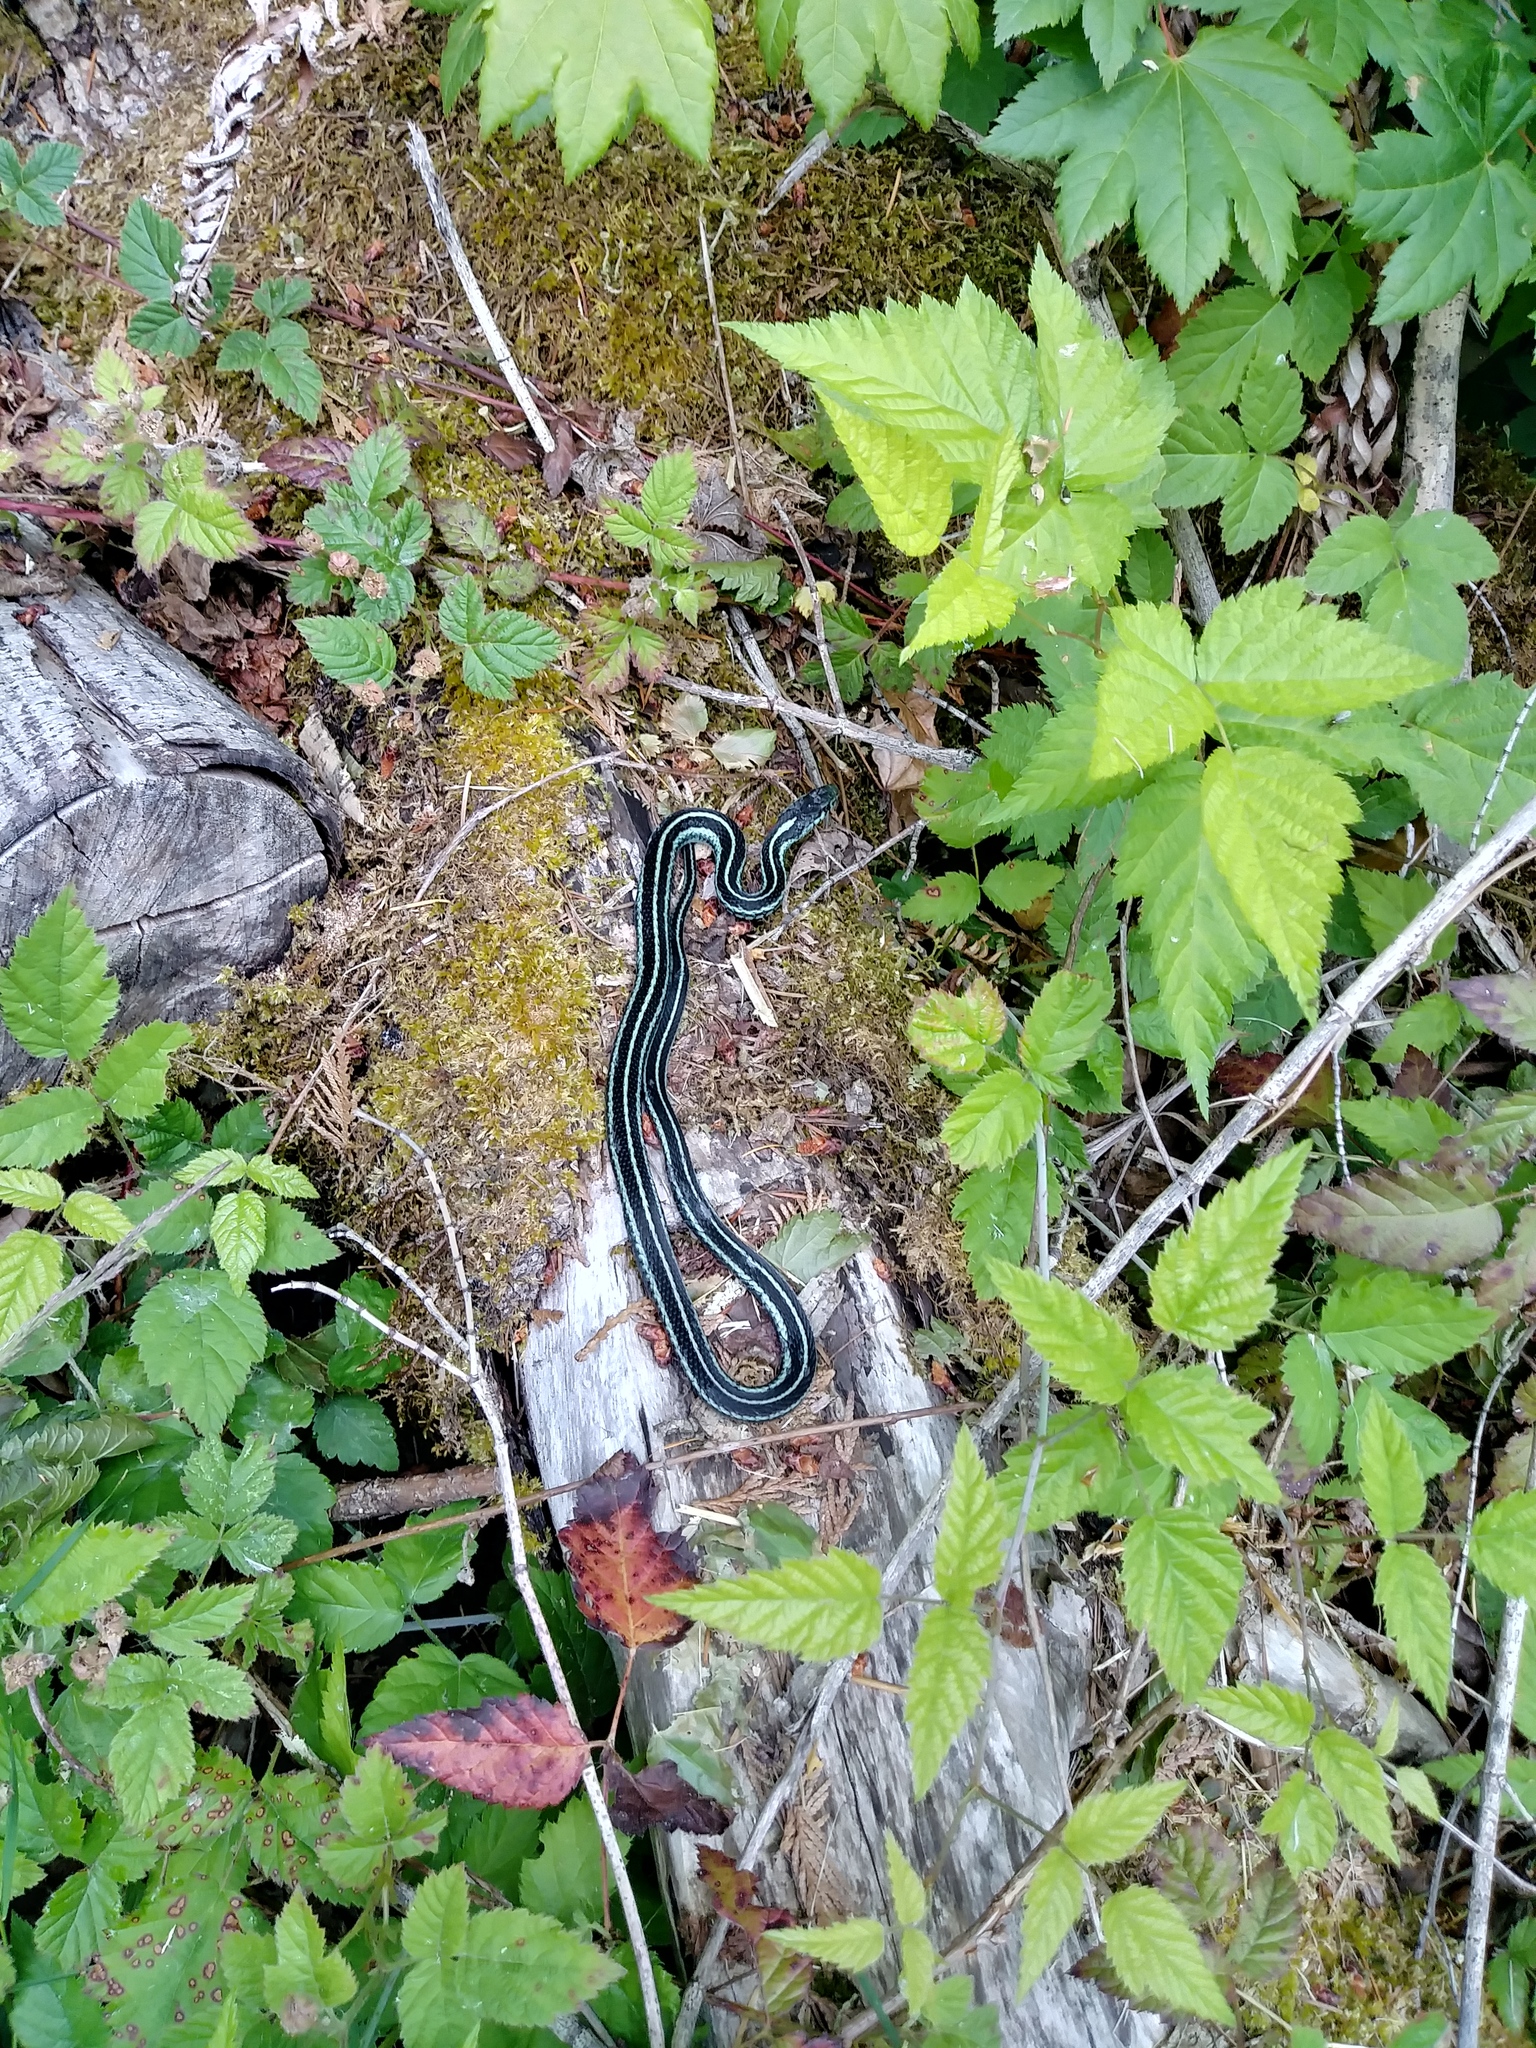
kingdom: Animalia
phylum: Chordata
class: Squamata
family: Colubridae
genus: Thamnophis
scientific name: Thamnophis sirtalis
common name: Common garter snake
